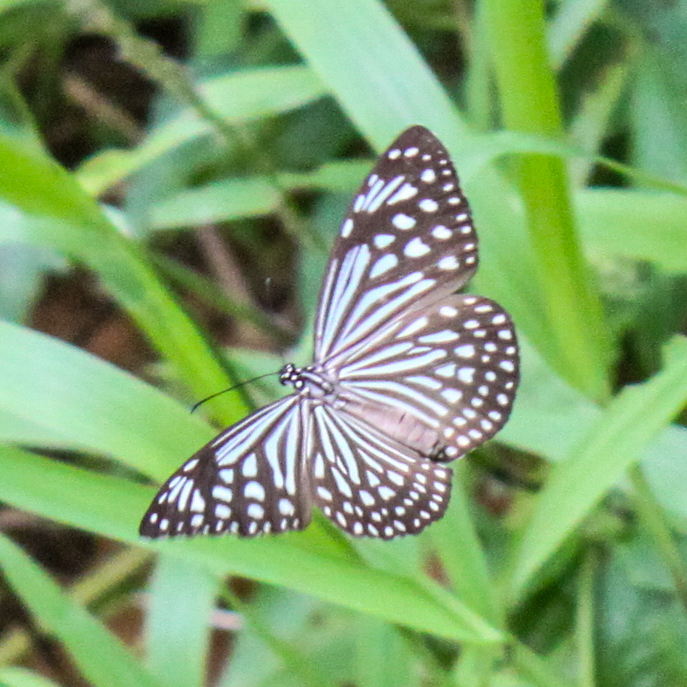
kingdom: Animalia
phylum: Arthropoda
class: Insecta
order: Lepidoptera
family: Nymphalidae
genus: Parantica
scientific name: Parantica agleoides
